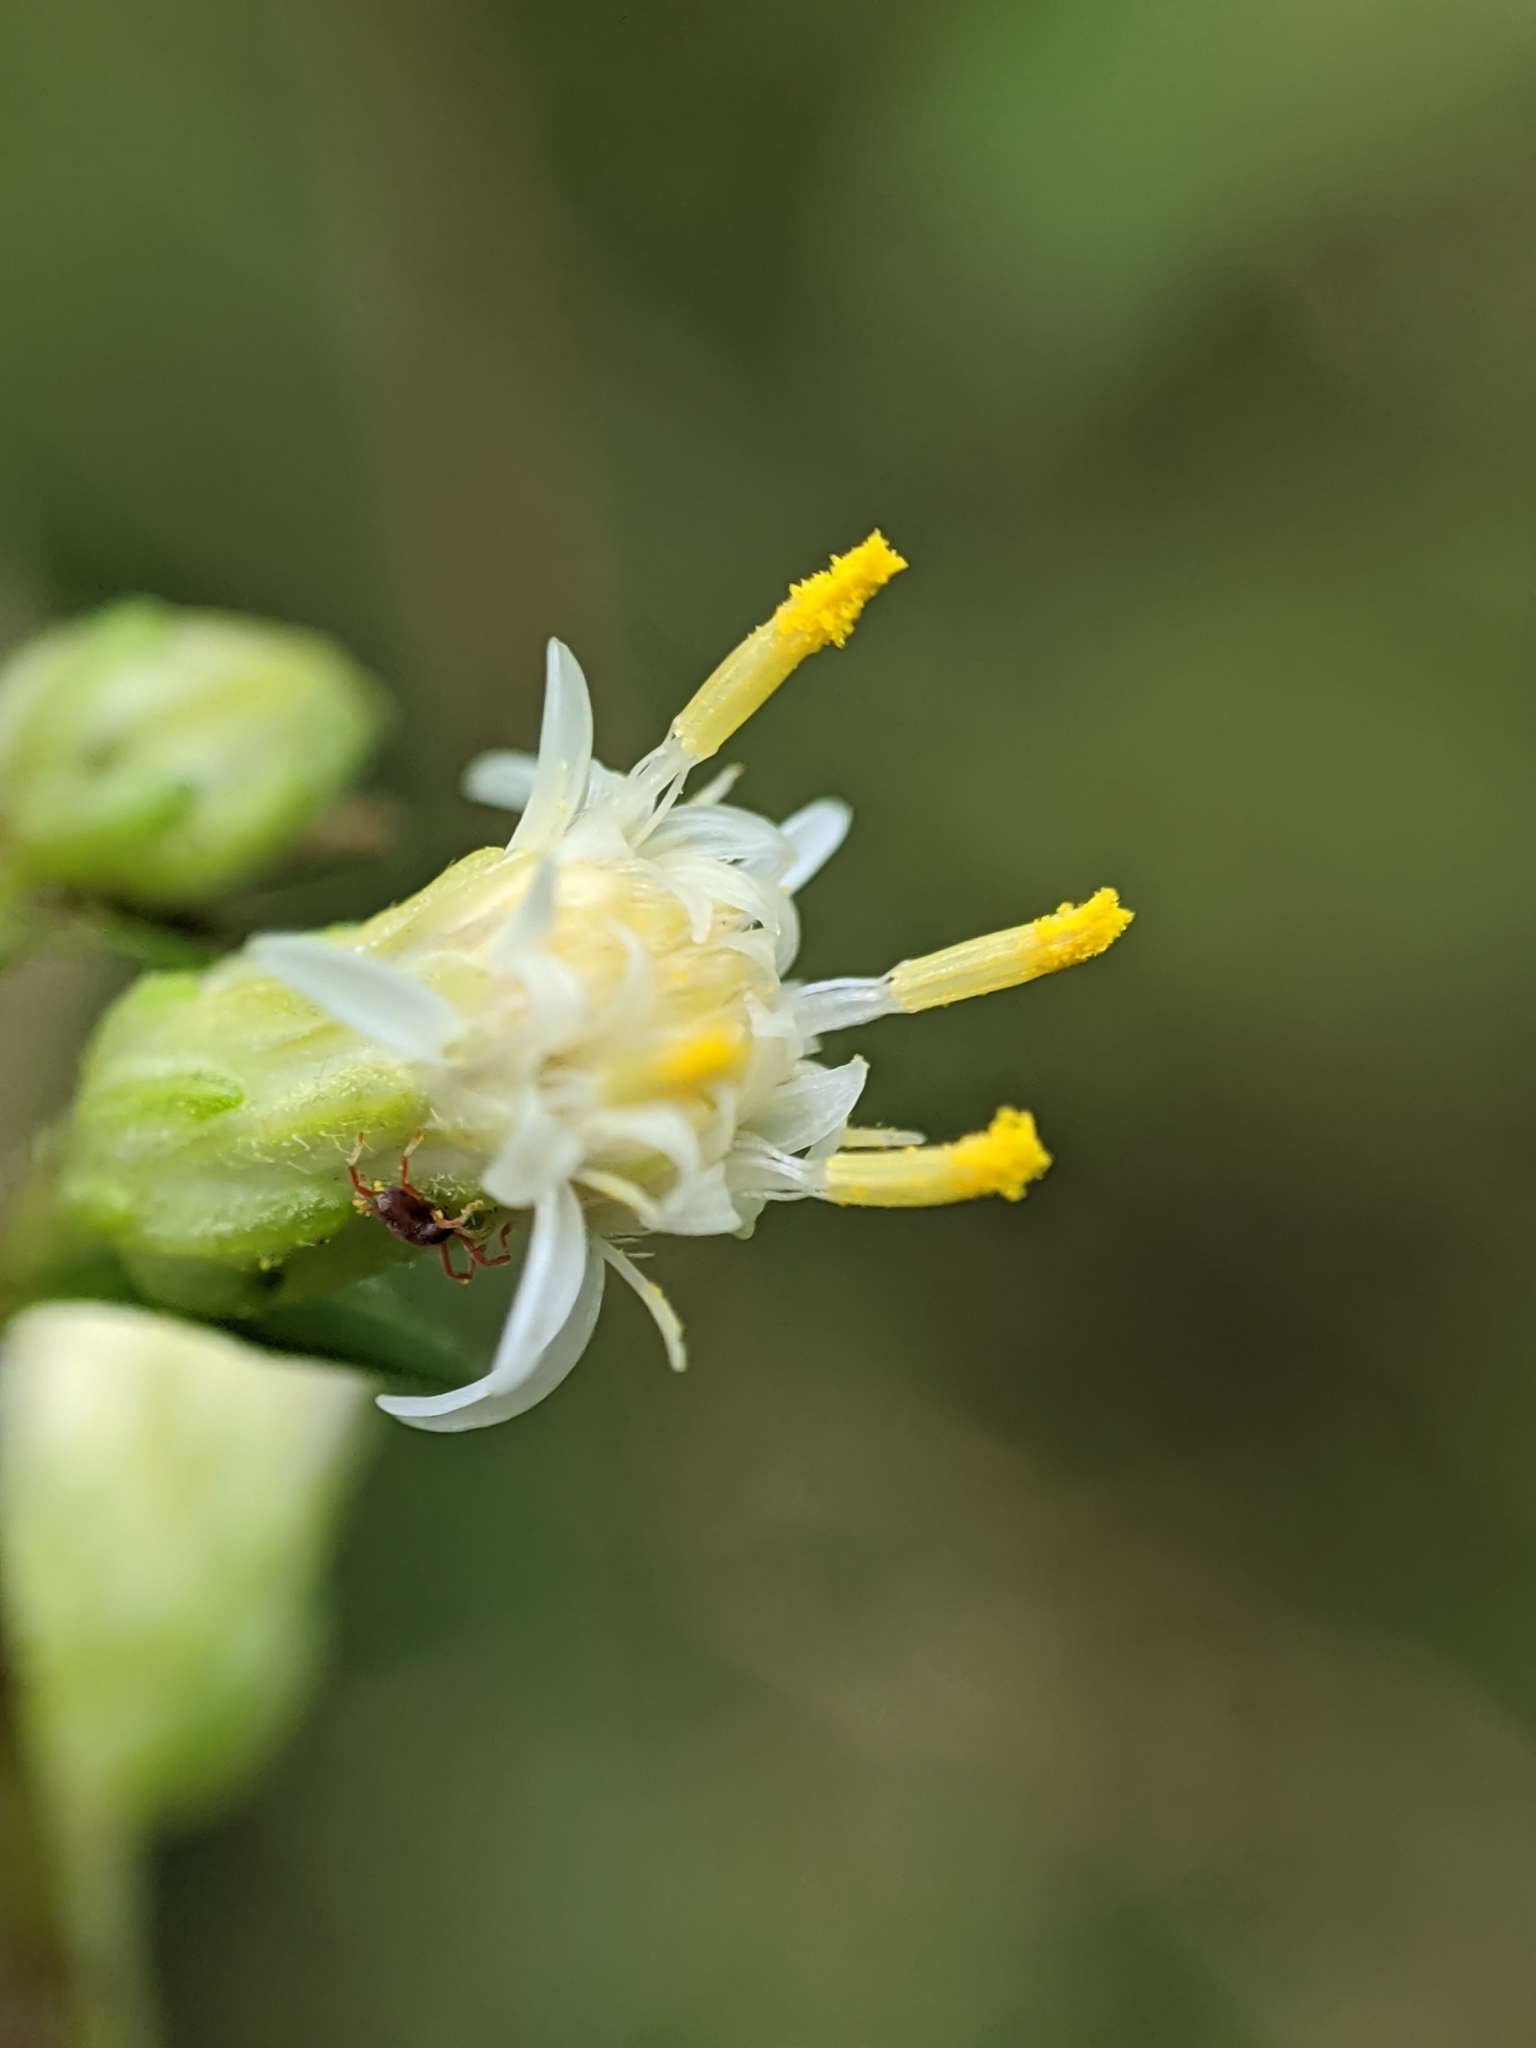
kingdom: Plantae
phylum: Tracheophyta
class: Magnoliopsida
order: Asterales
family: Asteraceae
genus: Solidago
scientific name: Solidago bicolor
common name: Silverrod
